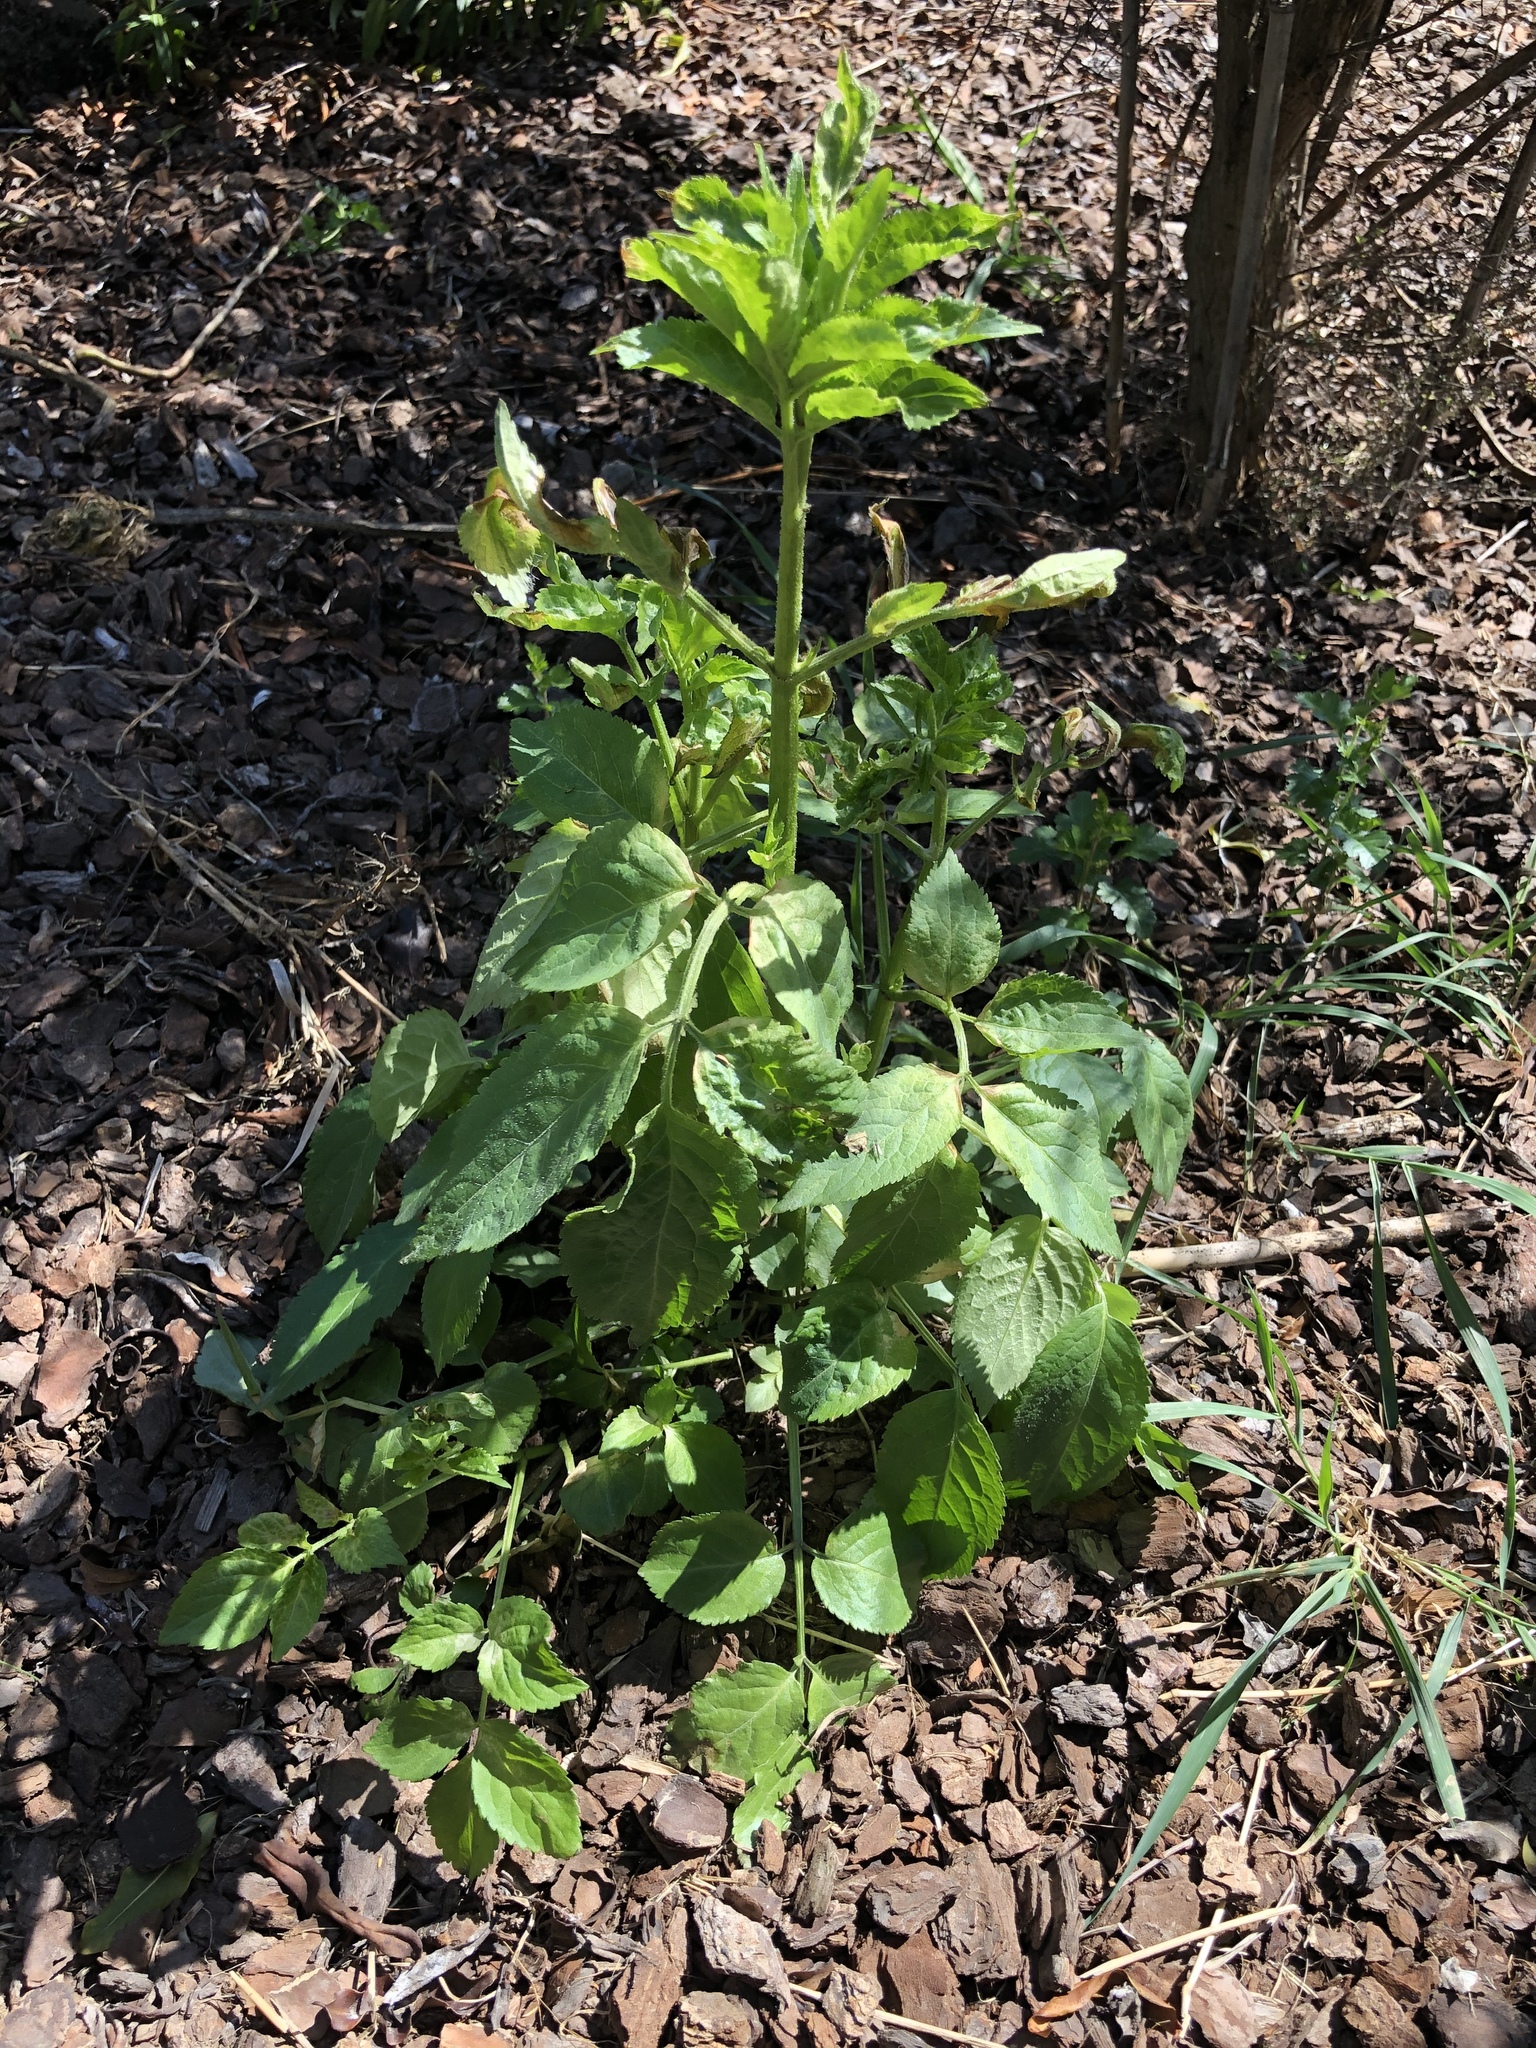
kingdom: Plantae
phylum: Tracheophyta
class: Magnoliopsida
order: Dipsacales
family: Viburnaceae
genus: Sambucus
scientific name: Sambucus nigra
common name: Elder
